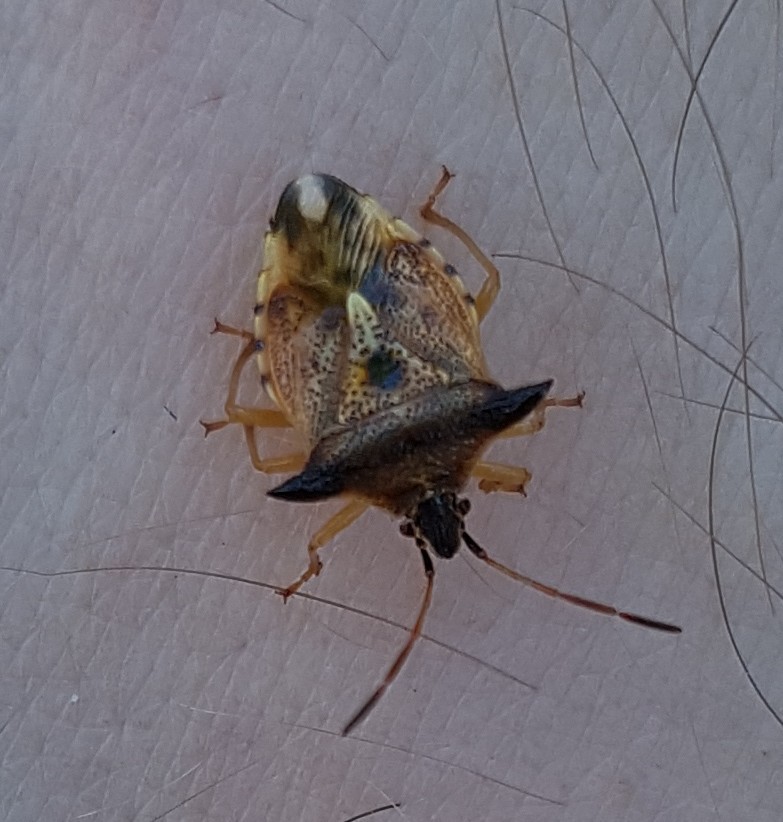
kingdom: Animalia
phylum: Arthropoda
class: Insecta
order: Hemiptera
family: Acanthosomatidae
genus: Elasmucha
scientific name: Elasmucha ferrugata
